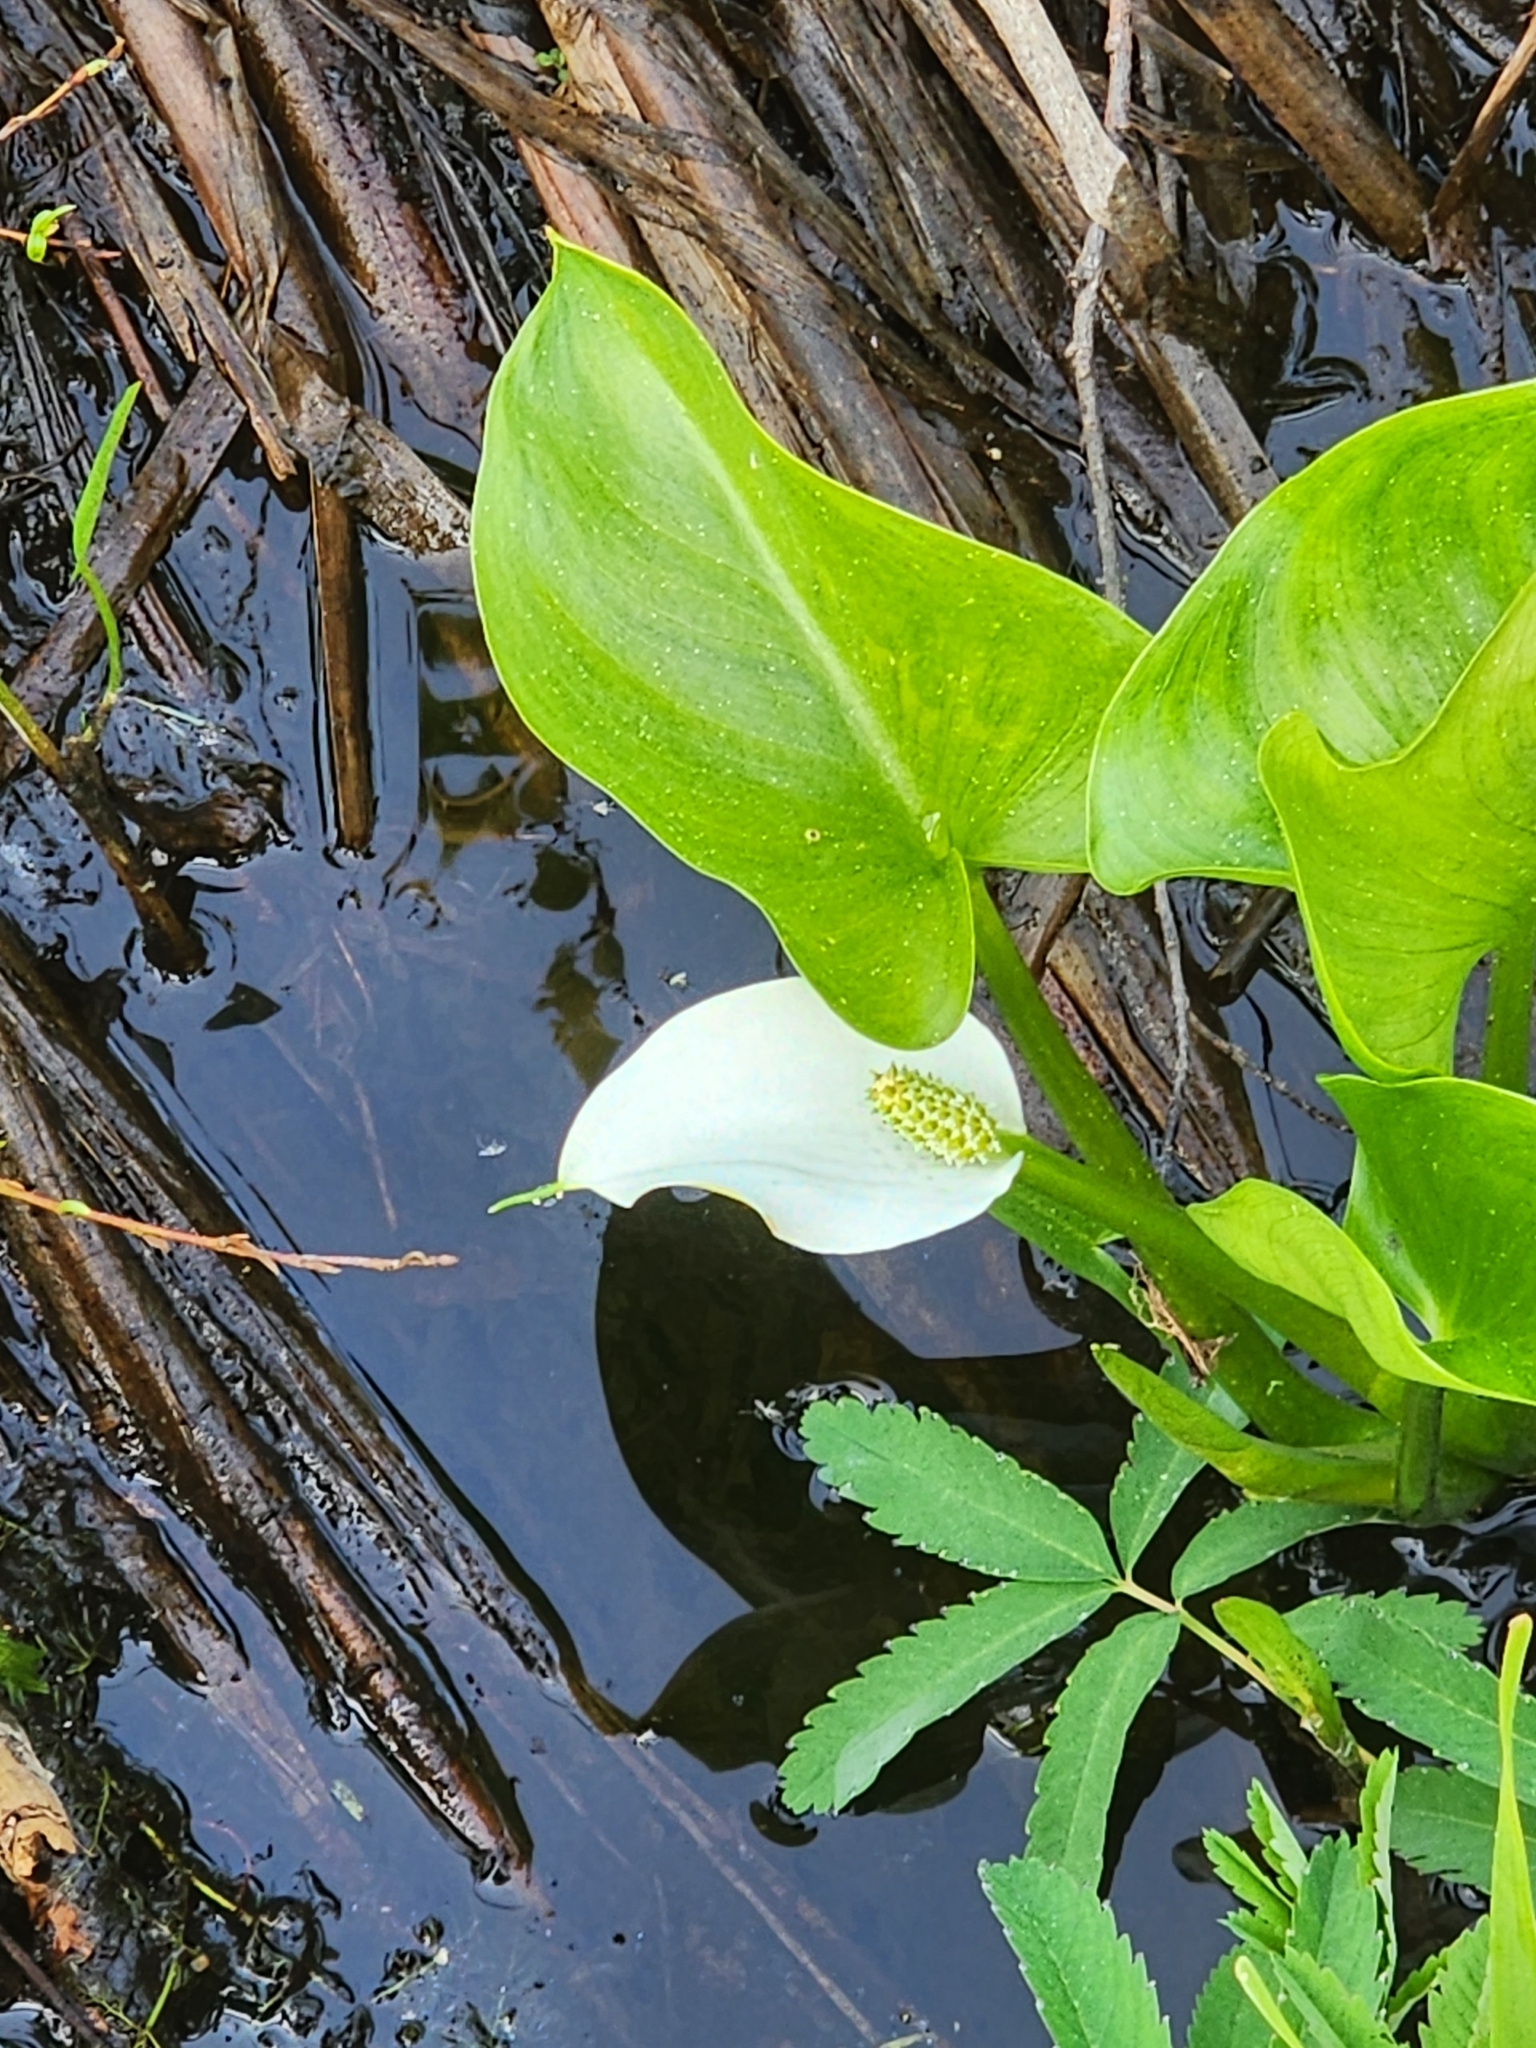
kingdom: Plantae
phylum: Tracheophyta
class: Liliopsida
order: Alismatales
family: Araceae
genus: Calla
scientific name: Calla palustris
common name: Bog arum
